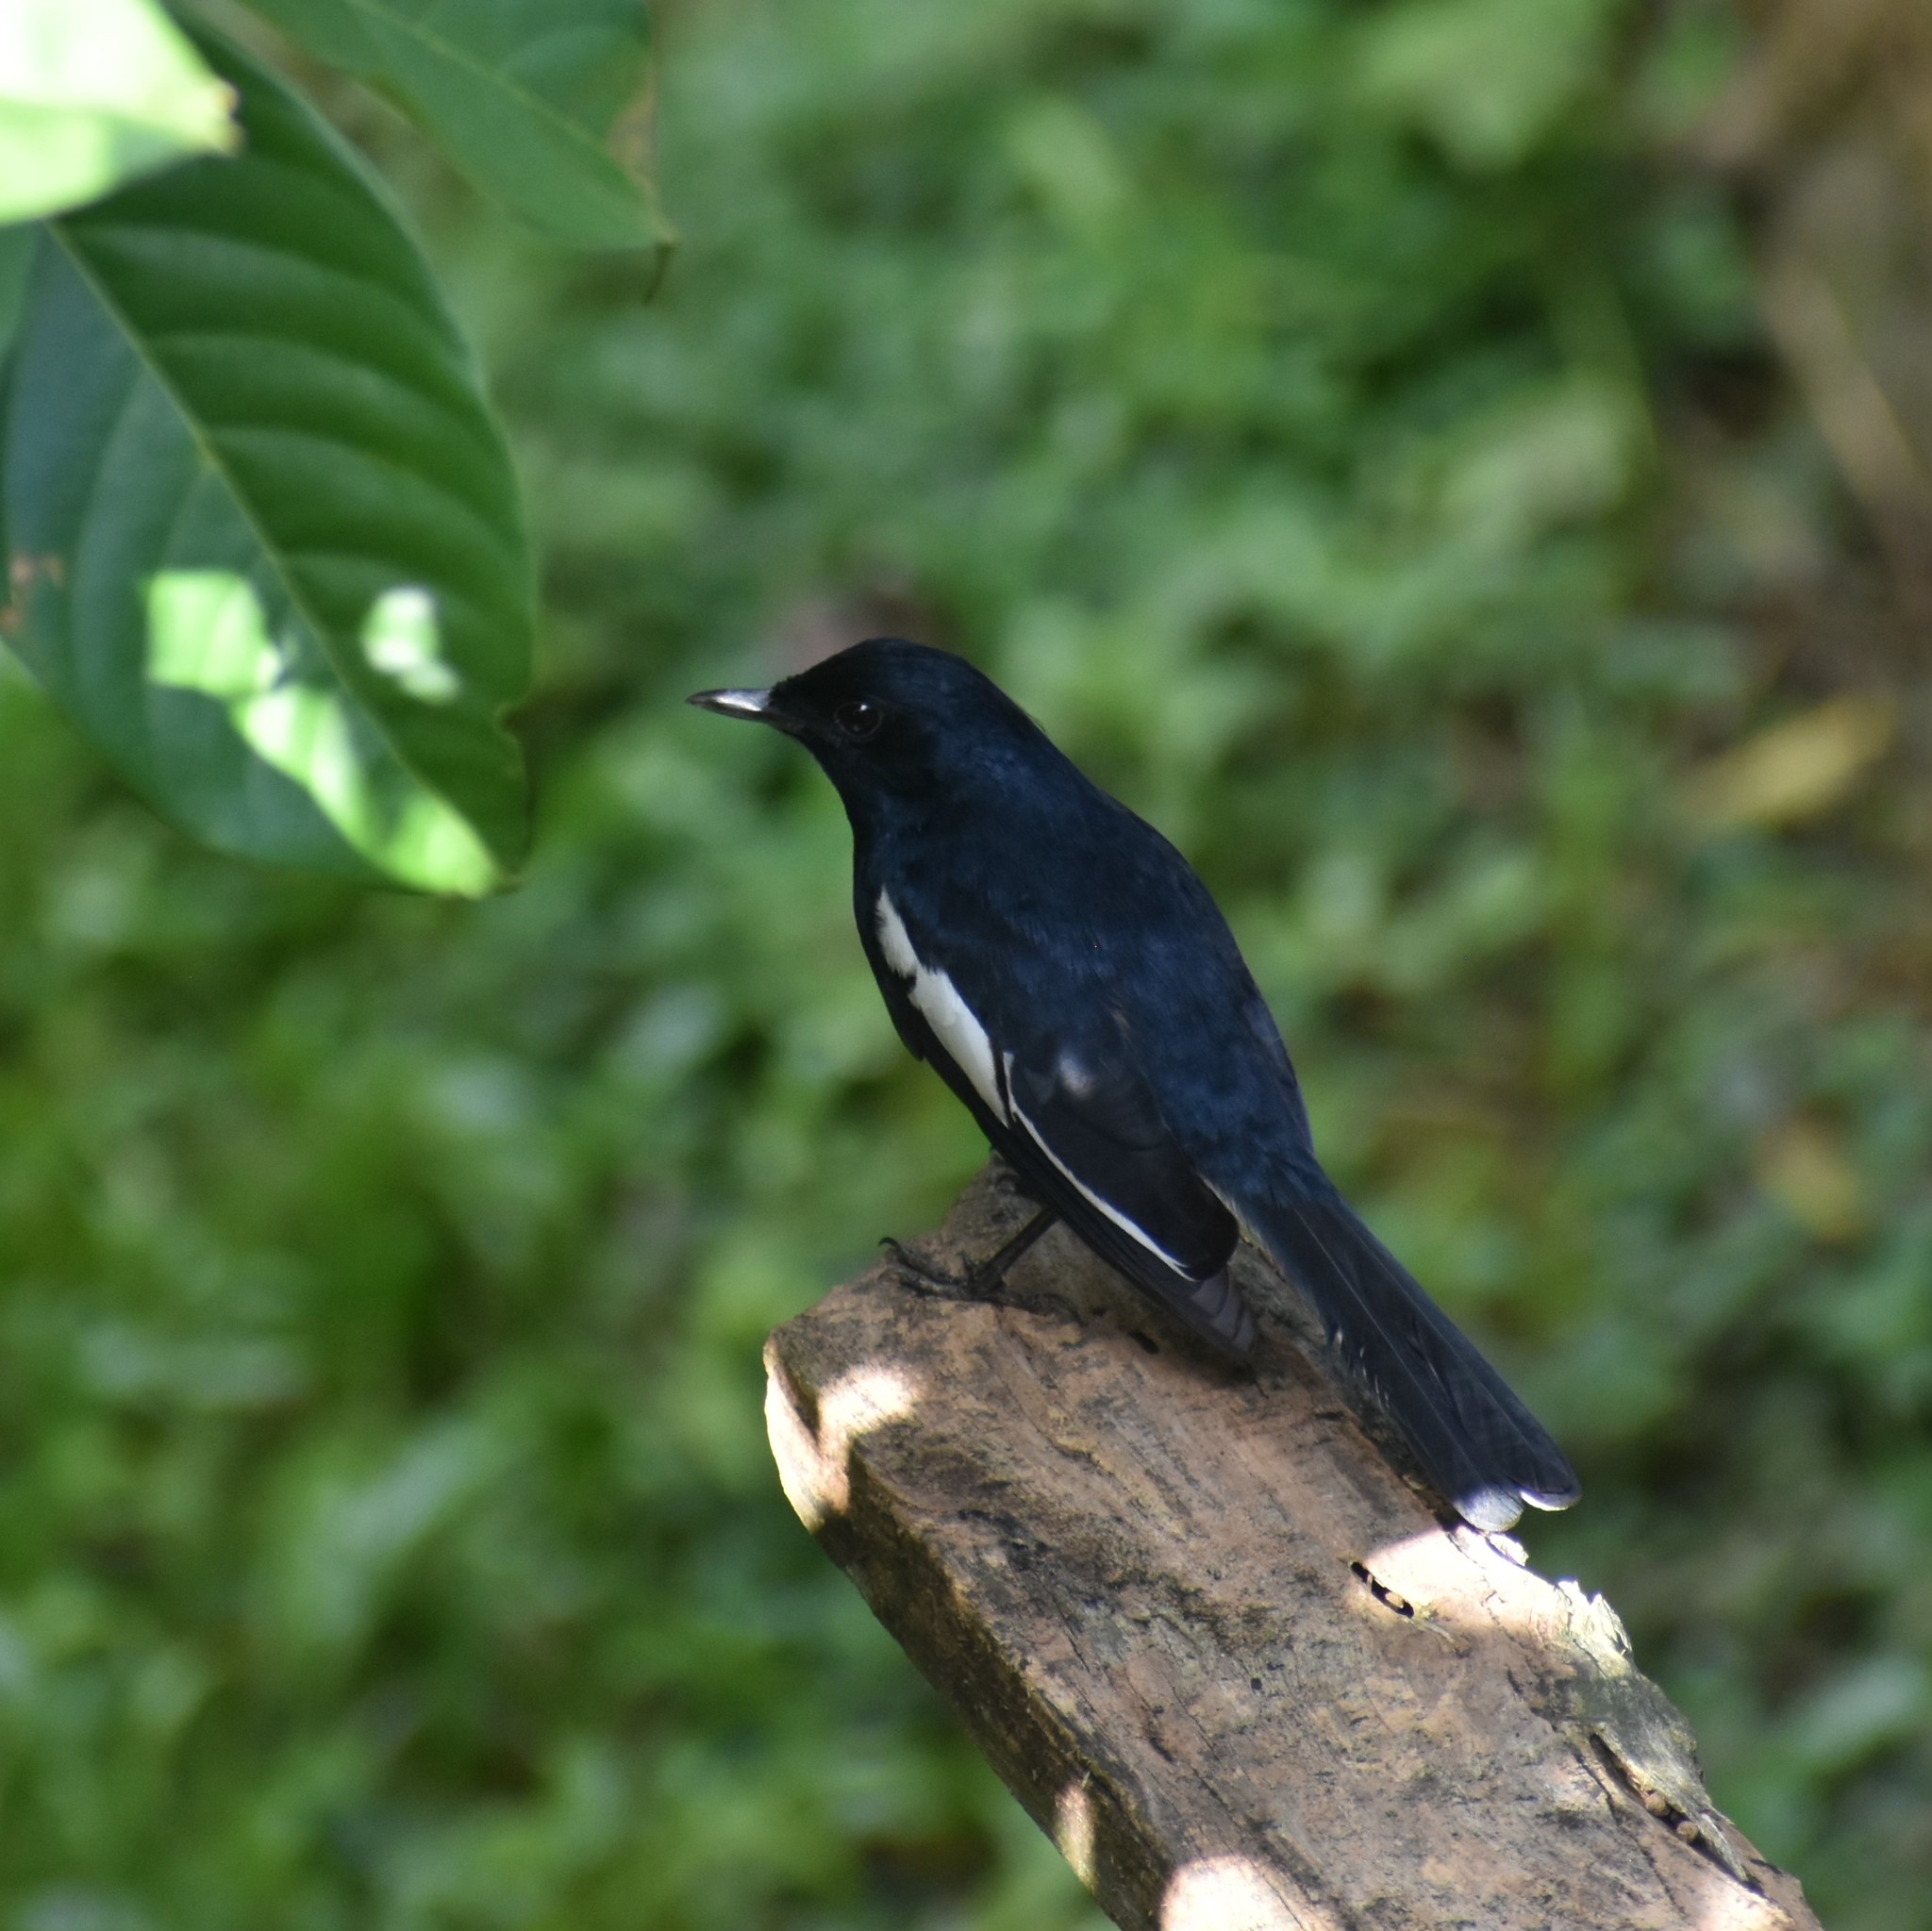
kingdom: Animalia
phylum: Chordata
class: Aves
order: Passeriformes
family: Muscicapidae
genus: Copsychus
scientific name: Copsychus saularis
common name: Oriental magpie-robin
